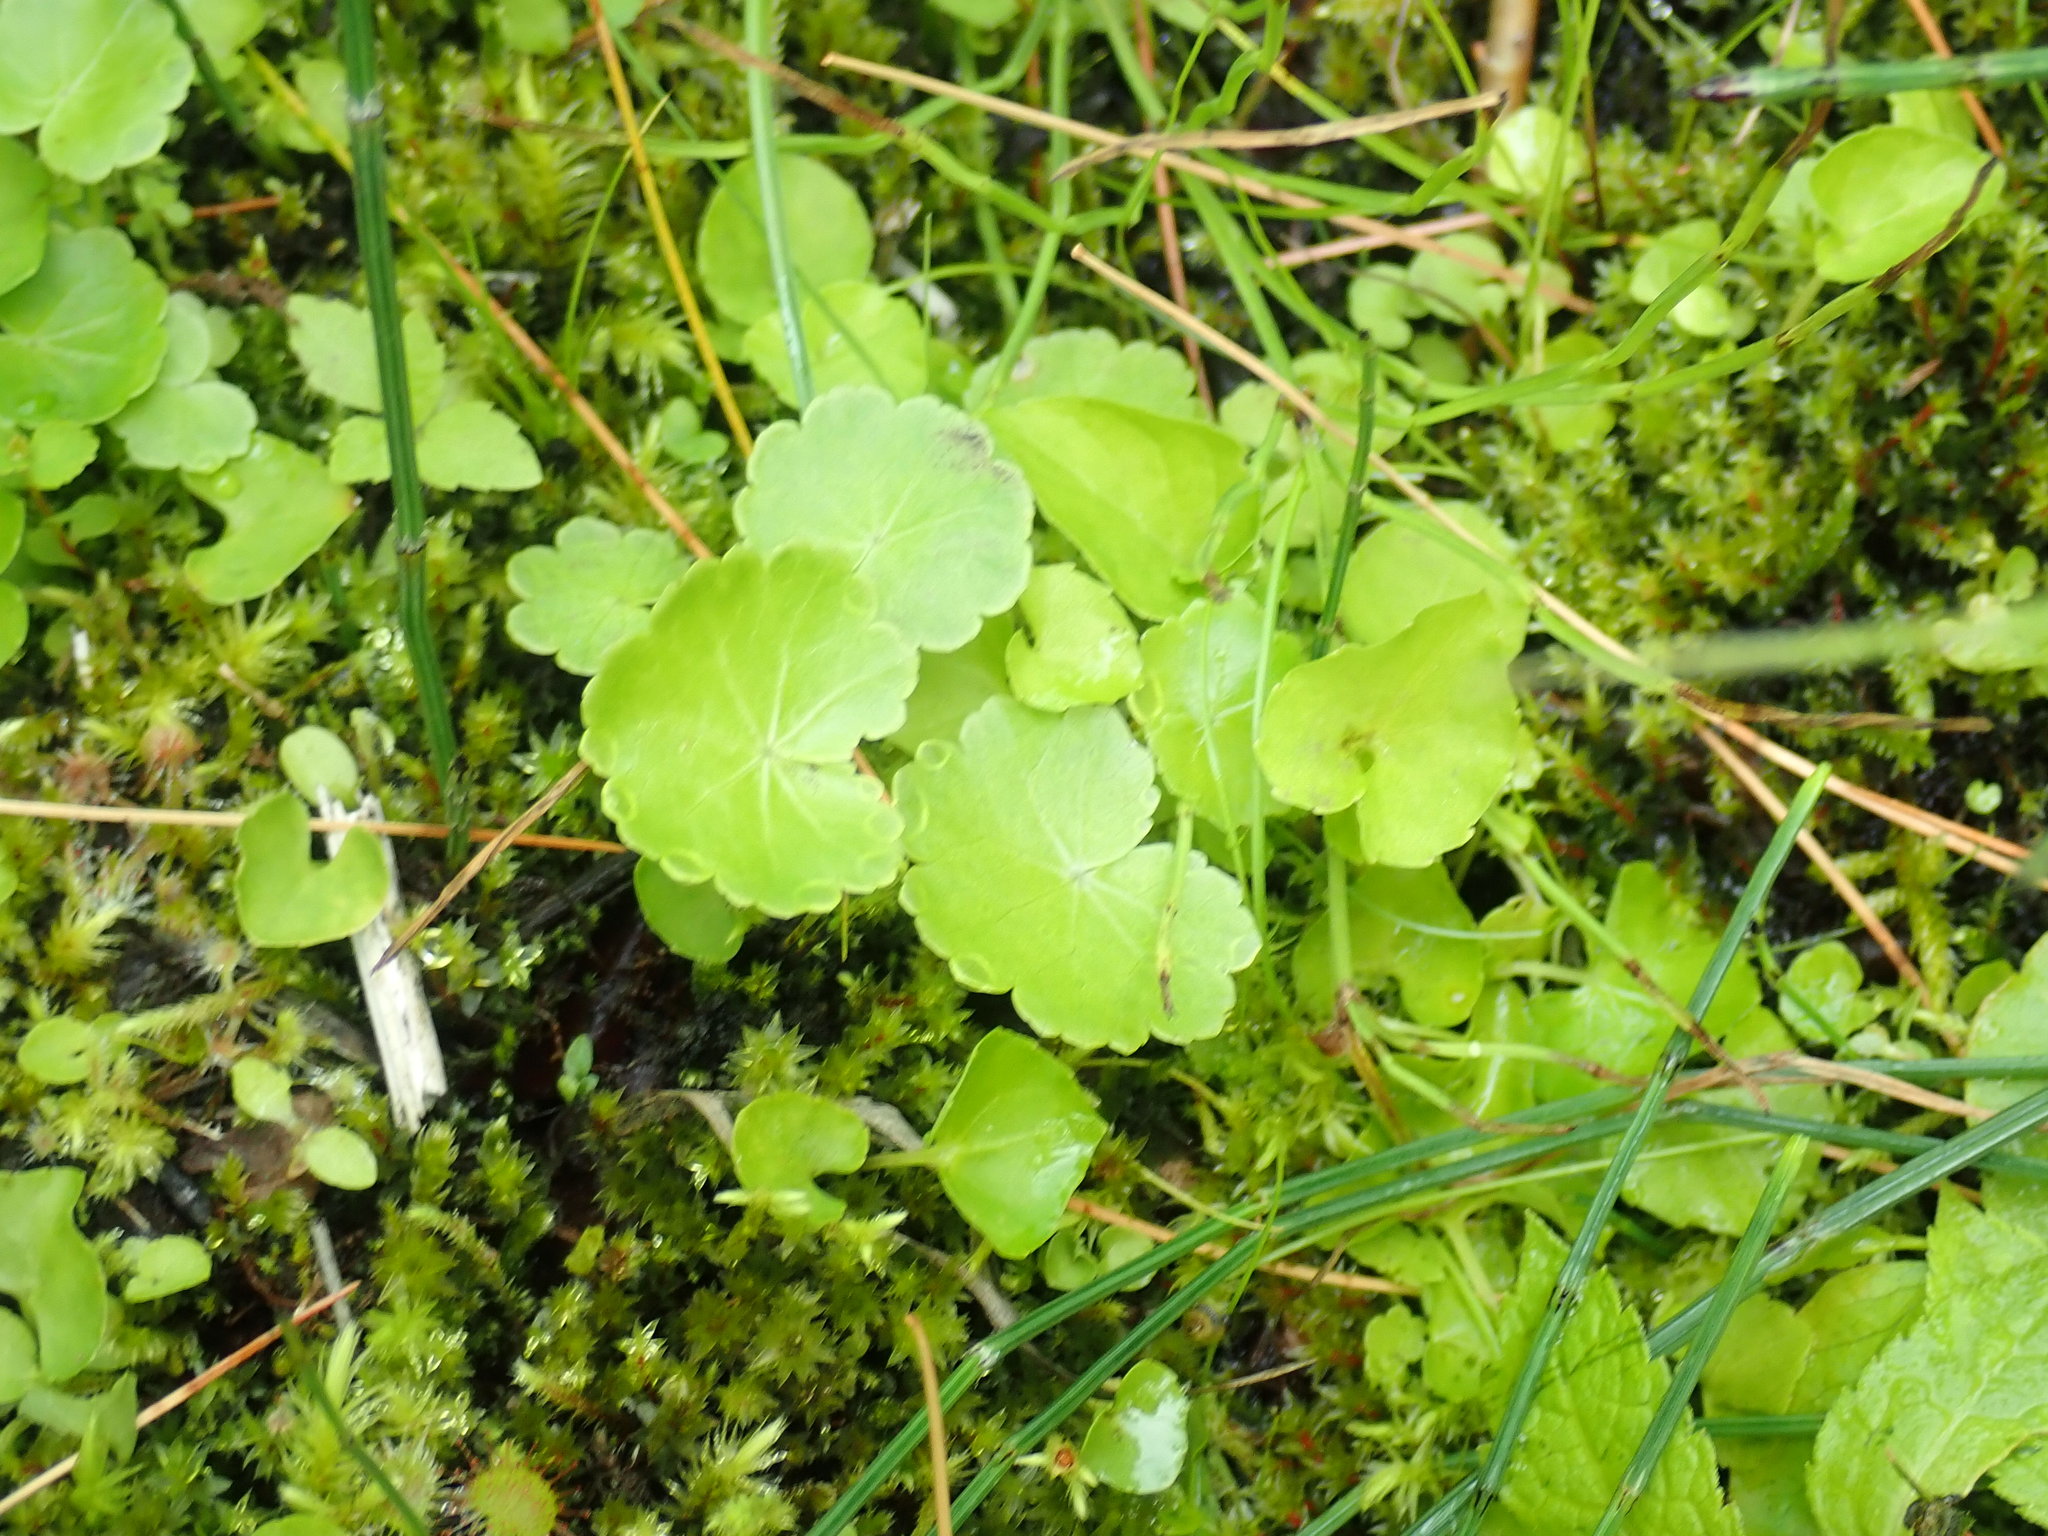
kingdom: Plantae
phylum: Tracheophyta
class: Magnoliopsida
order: Apiales
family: Araliaceae
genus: Hydrocotyle
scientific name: Hydrocotyle americana
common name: American water-pennywort
